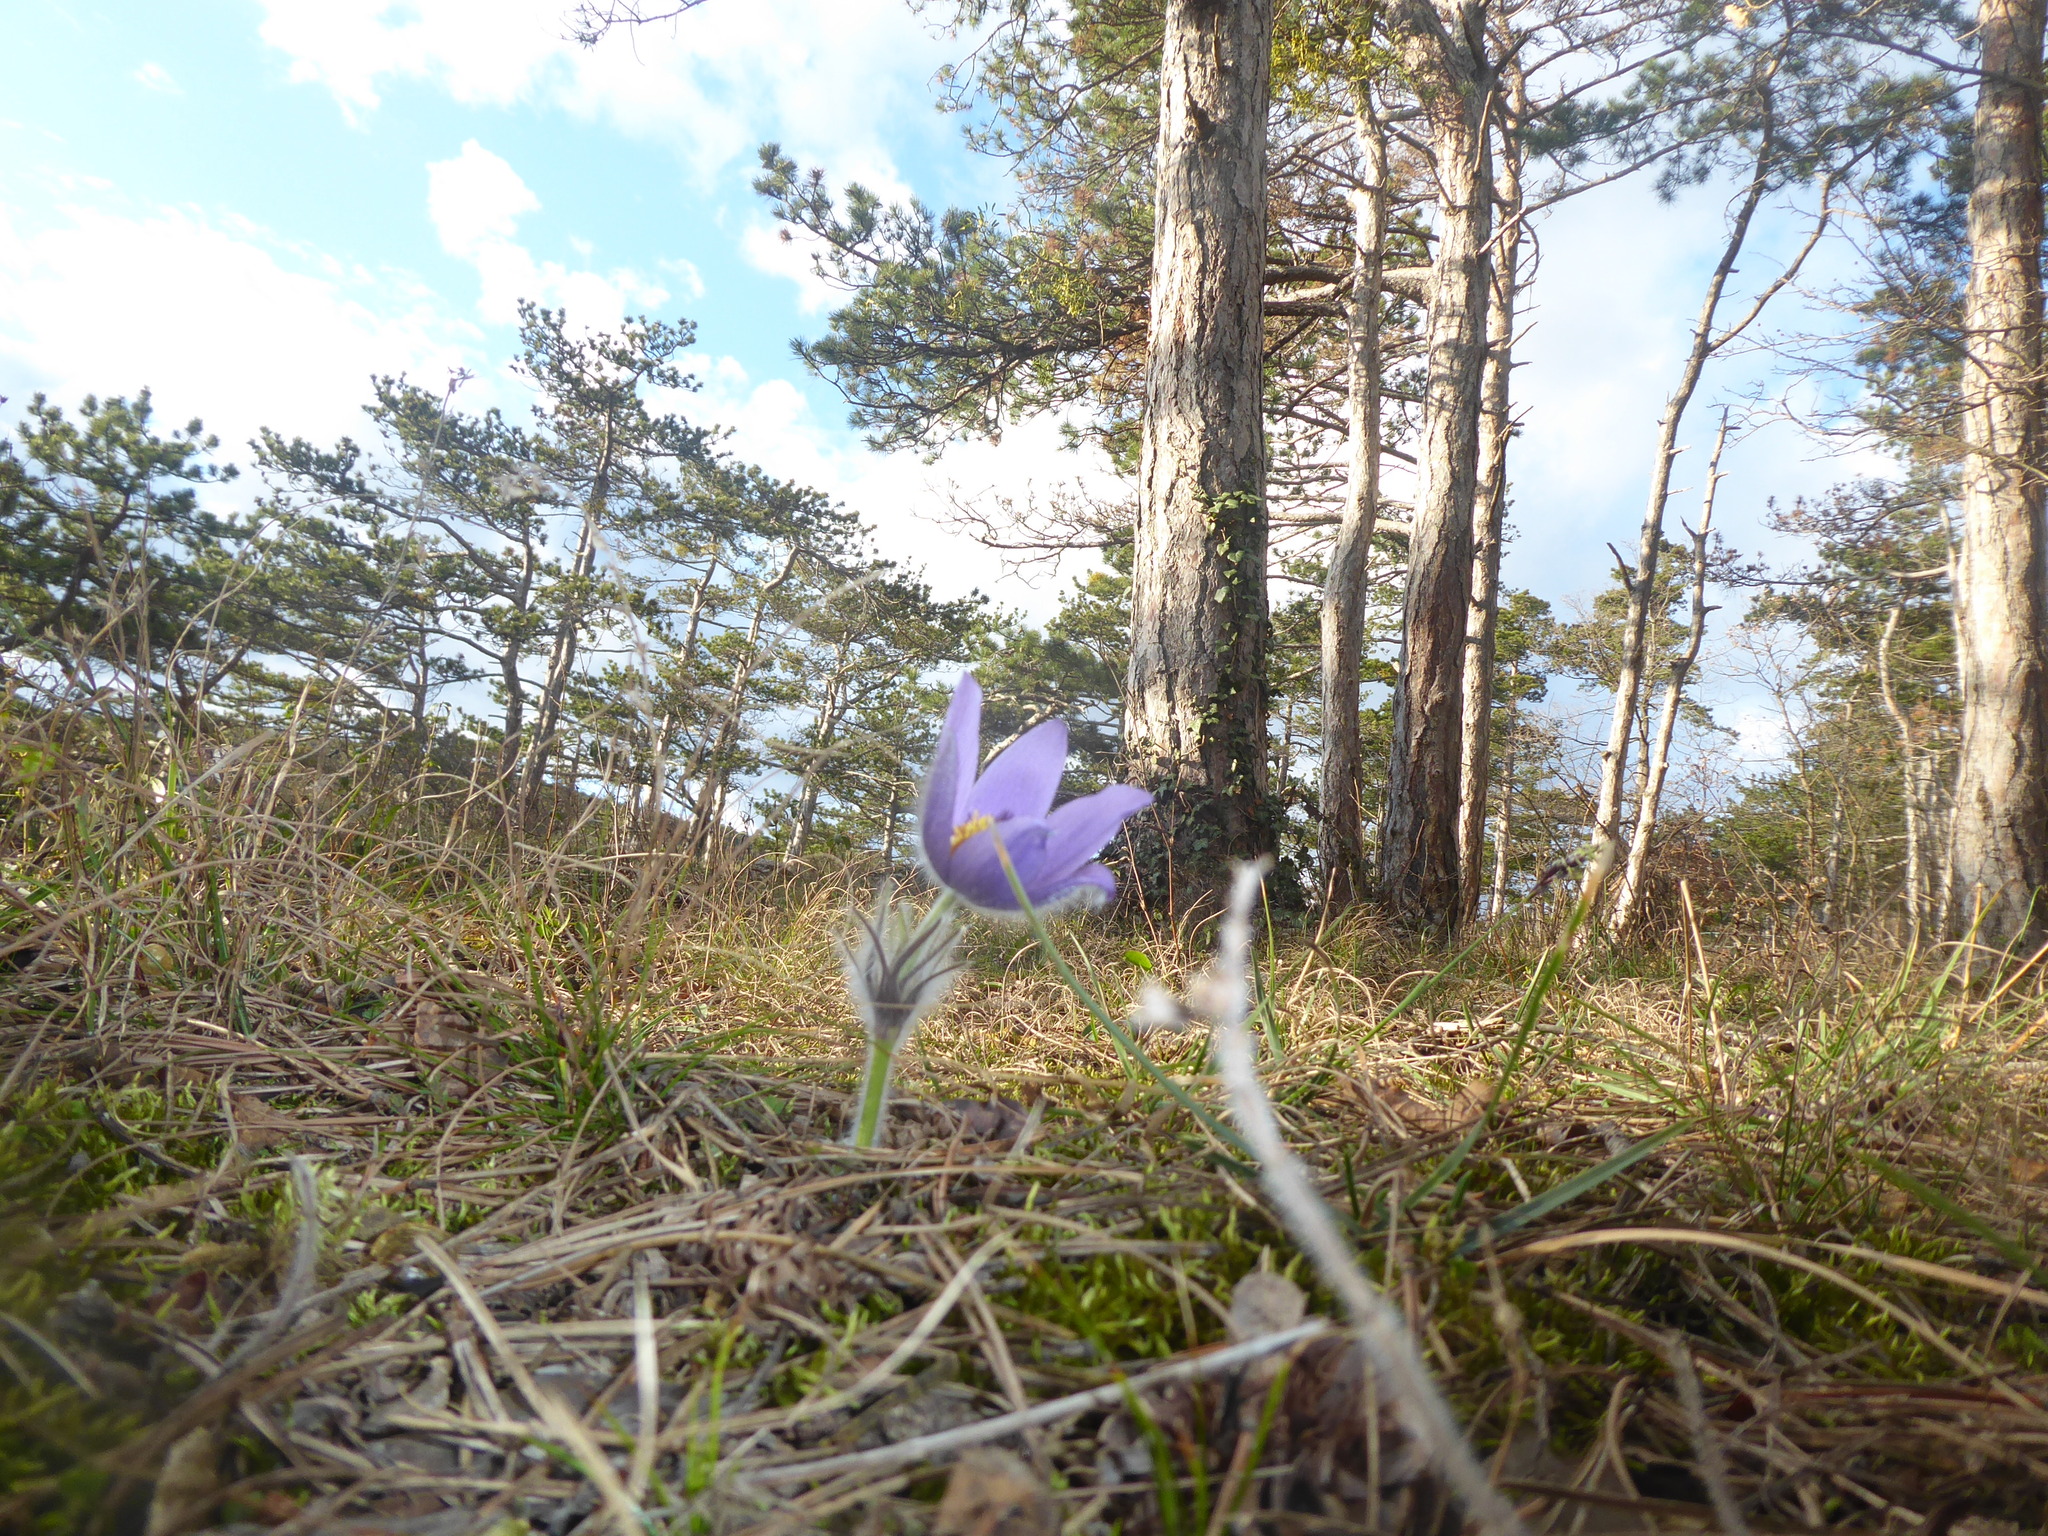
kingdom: Plantae
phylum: Tracheophyta
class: Magnoliopsida
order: Ranunculales
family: Ranunculaceae
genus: Pulsatilla
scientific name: Pulsatilla grandis
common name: Greater pasque flower
